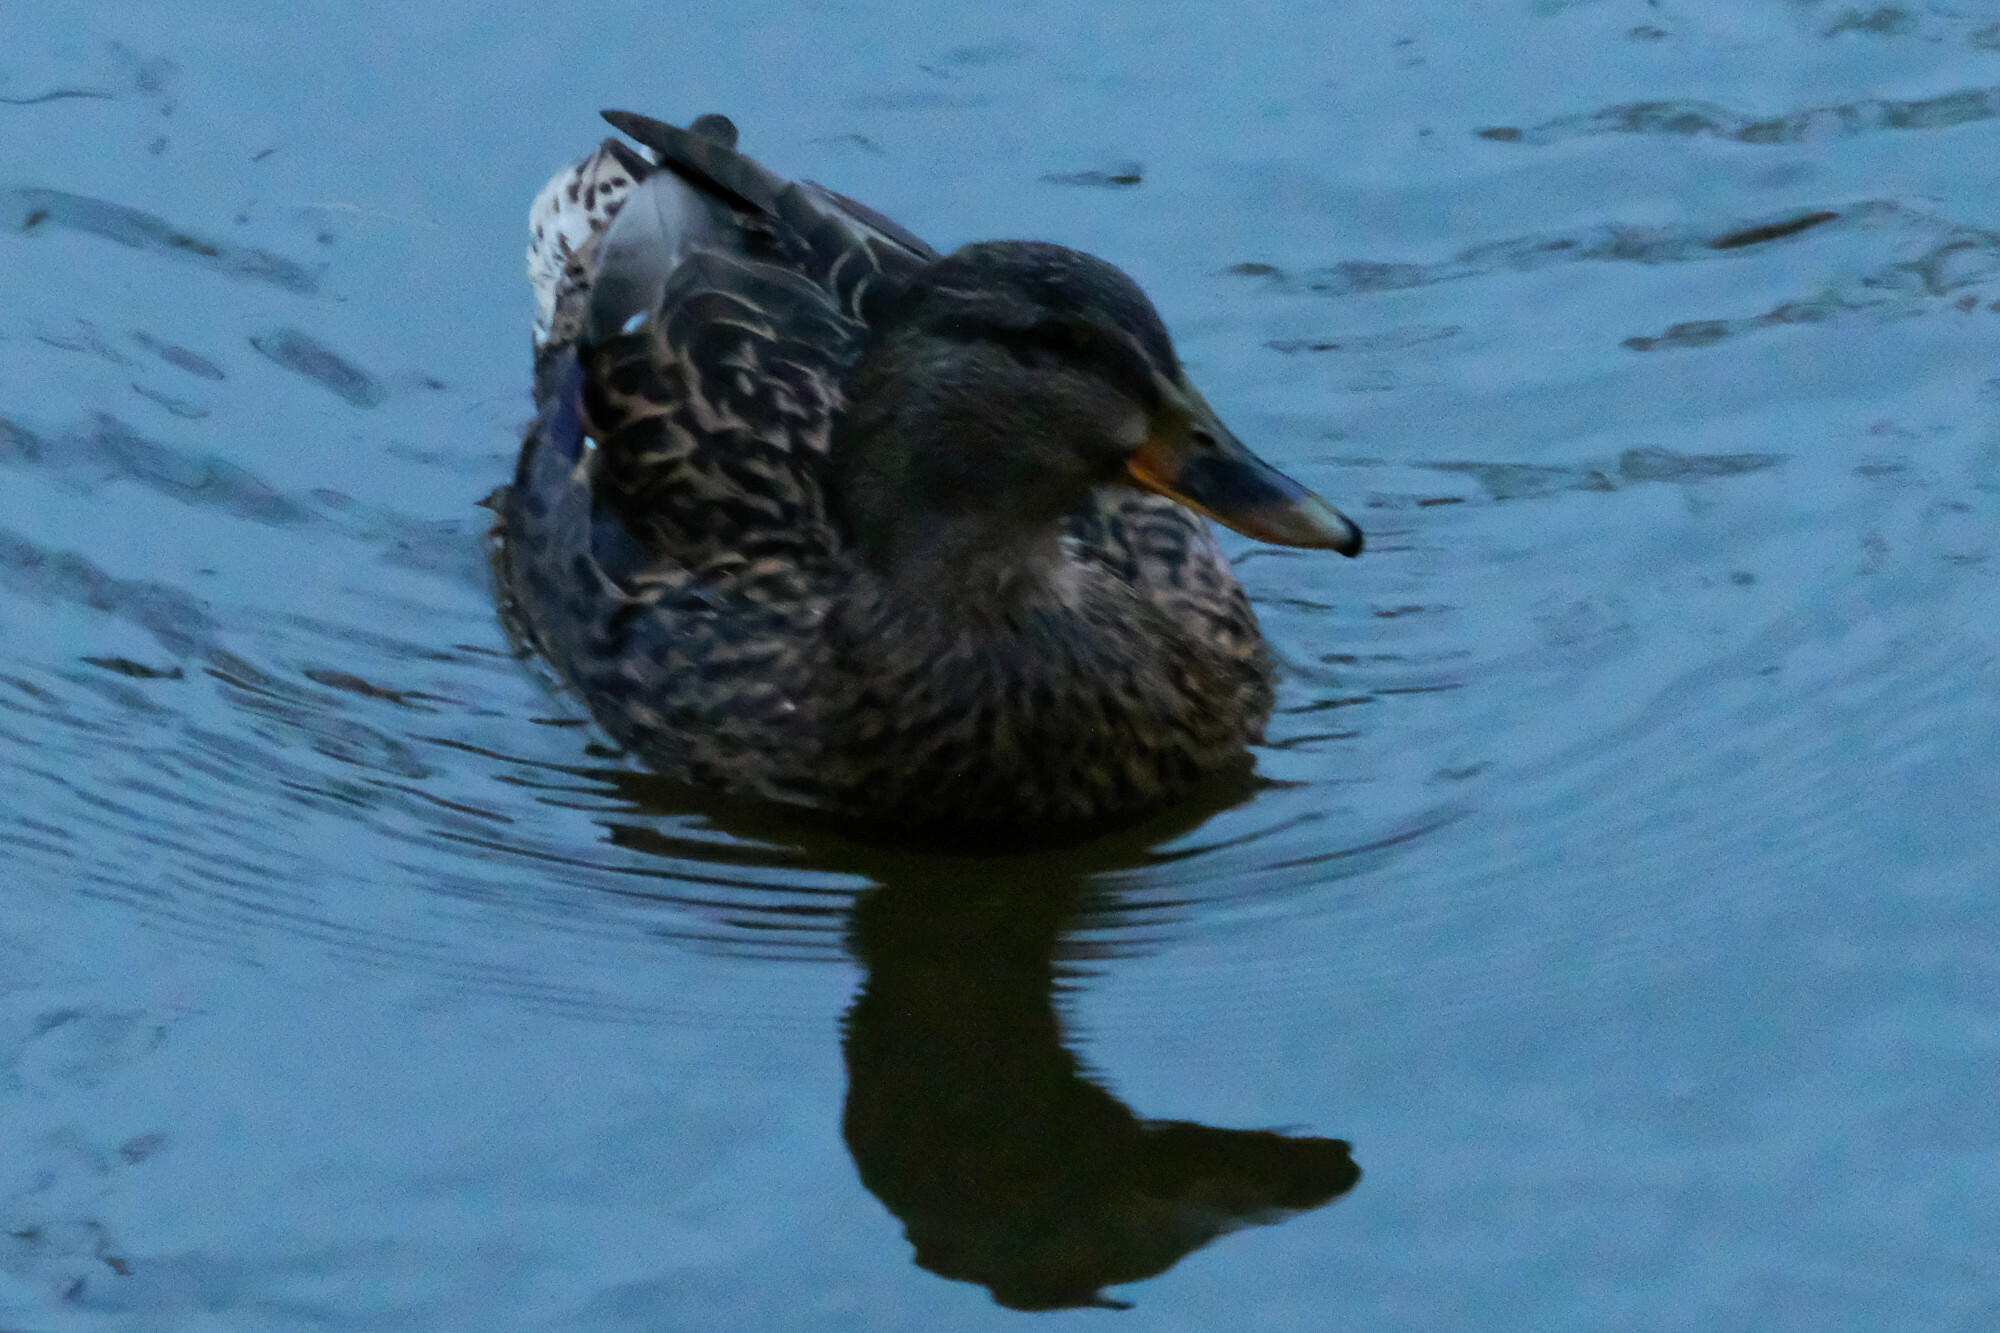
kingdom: Animalia
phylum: Chordata
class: Aves
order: Anseriformes
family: Anatidae
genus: Anas
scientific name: Anas platyrhynchos
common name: Mallard
